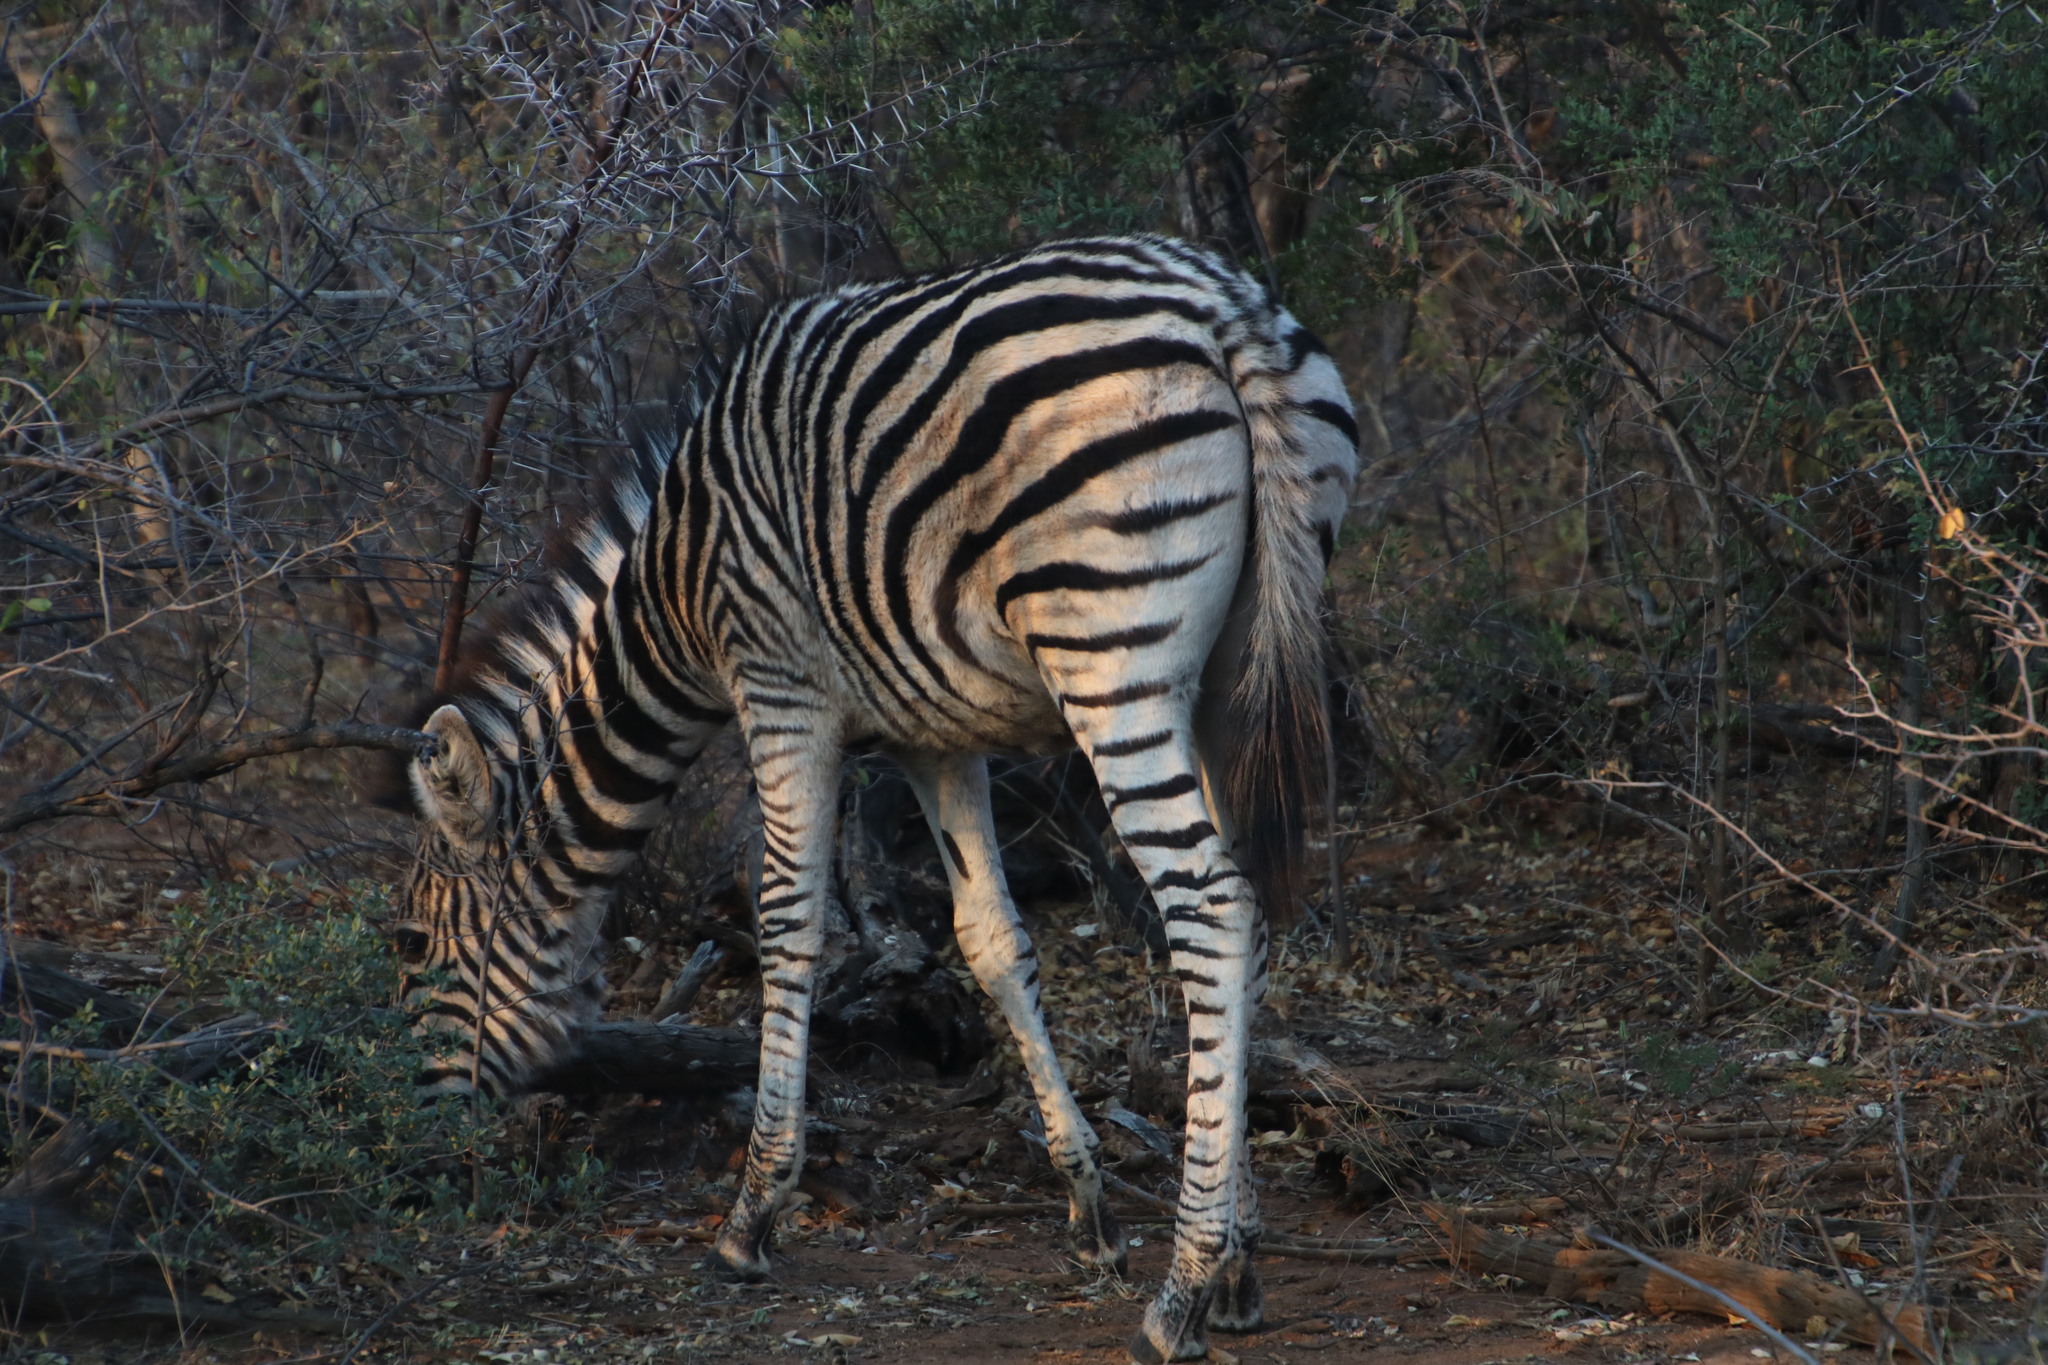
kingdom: Animalia
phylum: Chordata
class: Mammalia
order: Perissodactyla
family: Equidae
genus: Equus
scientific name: Equus quagga
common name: Plains zebra
